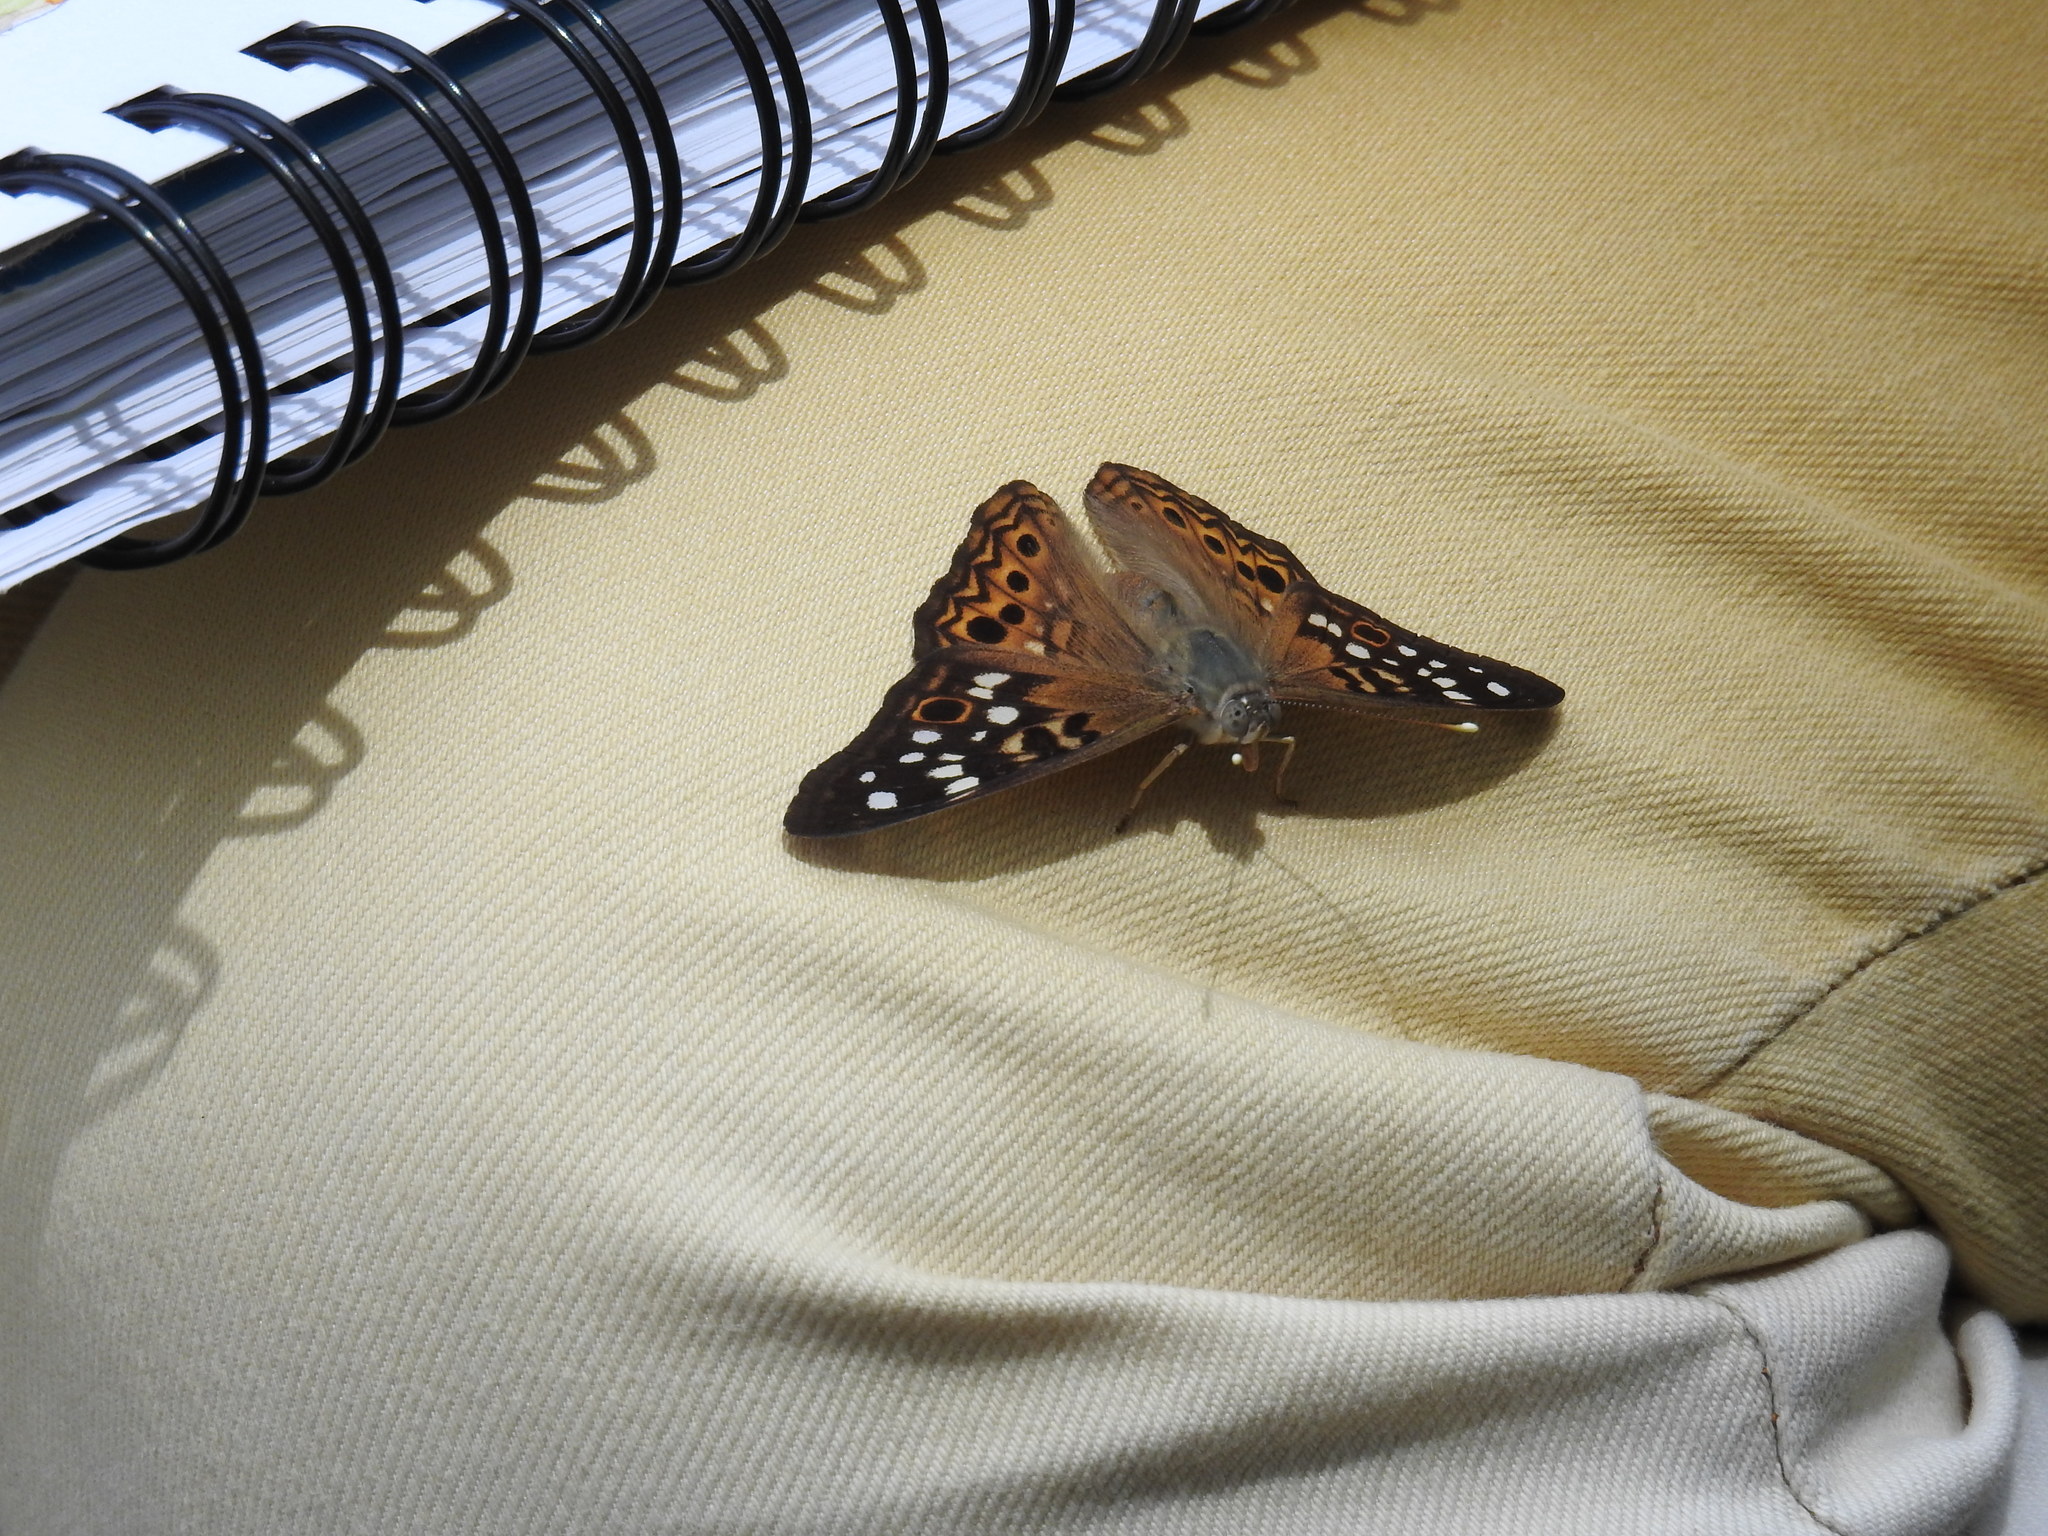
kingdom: Animalia
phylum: Arthropoda
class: Insecta
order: Lepidoptera
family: Nymphalidae
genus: Asterocampa
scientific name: Asterocampa celtis
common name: Hackberry emperor
